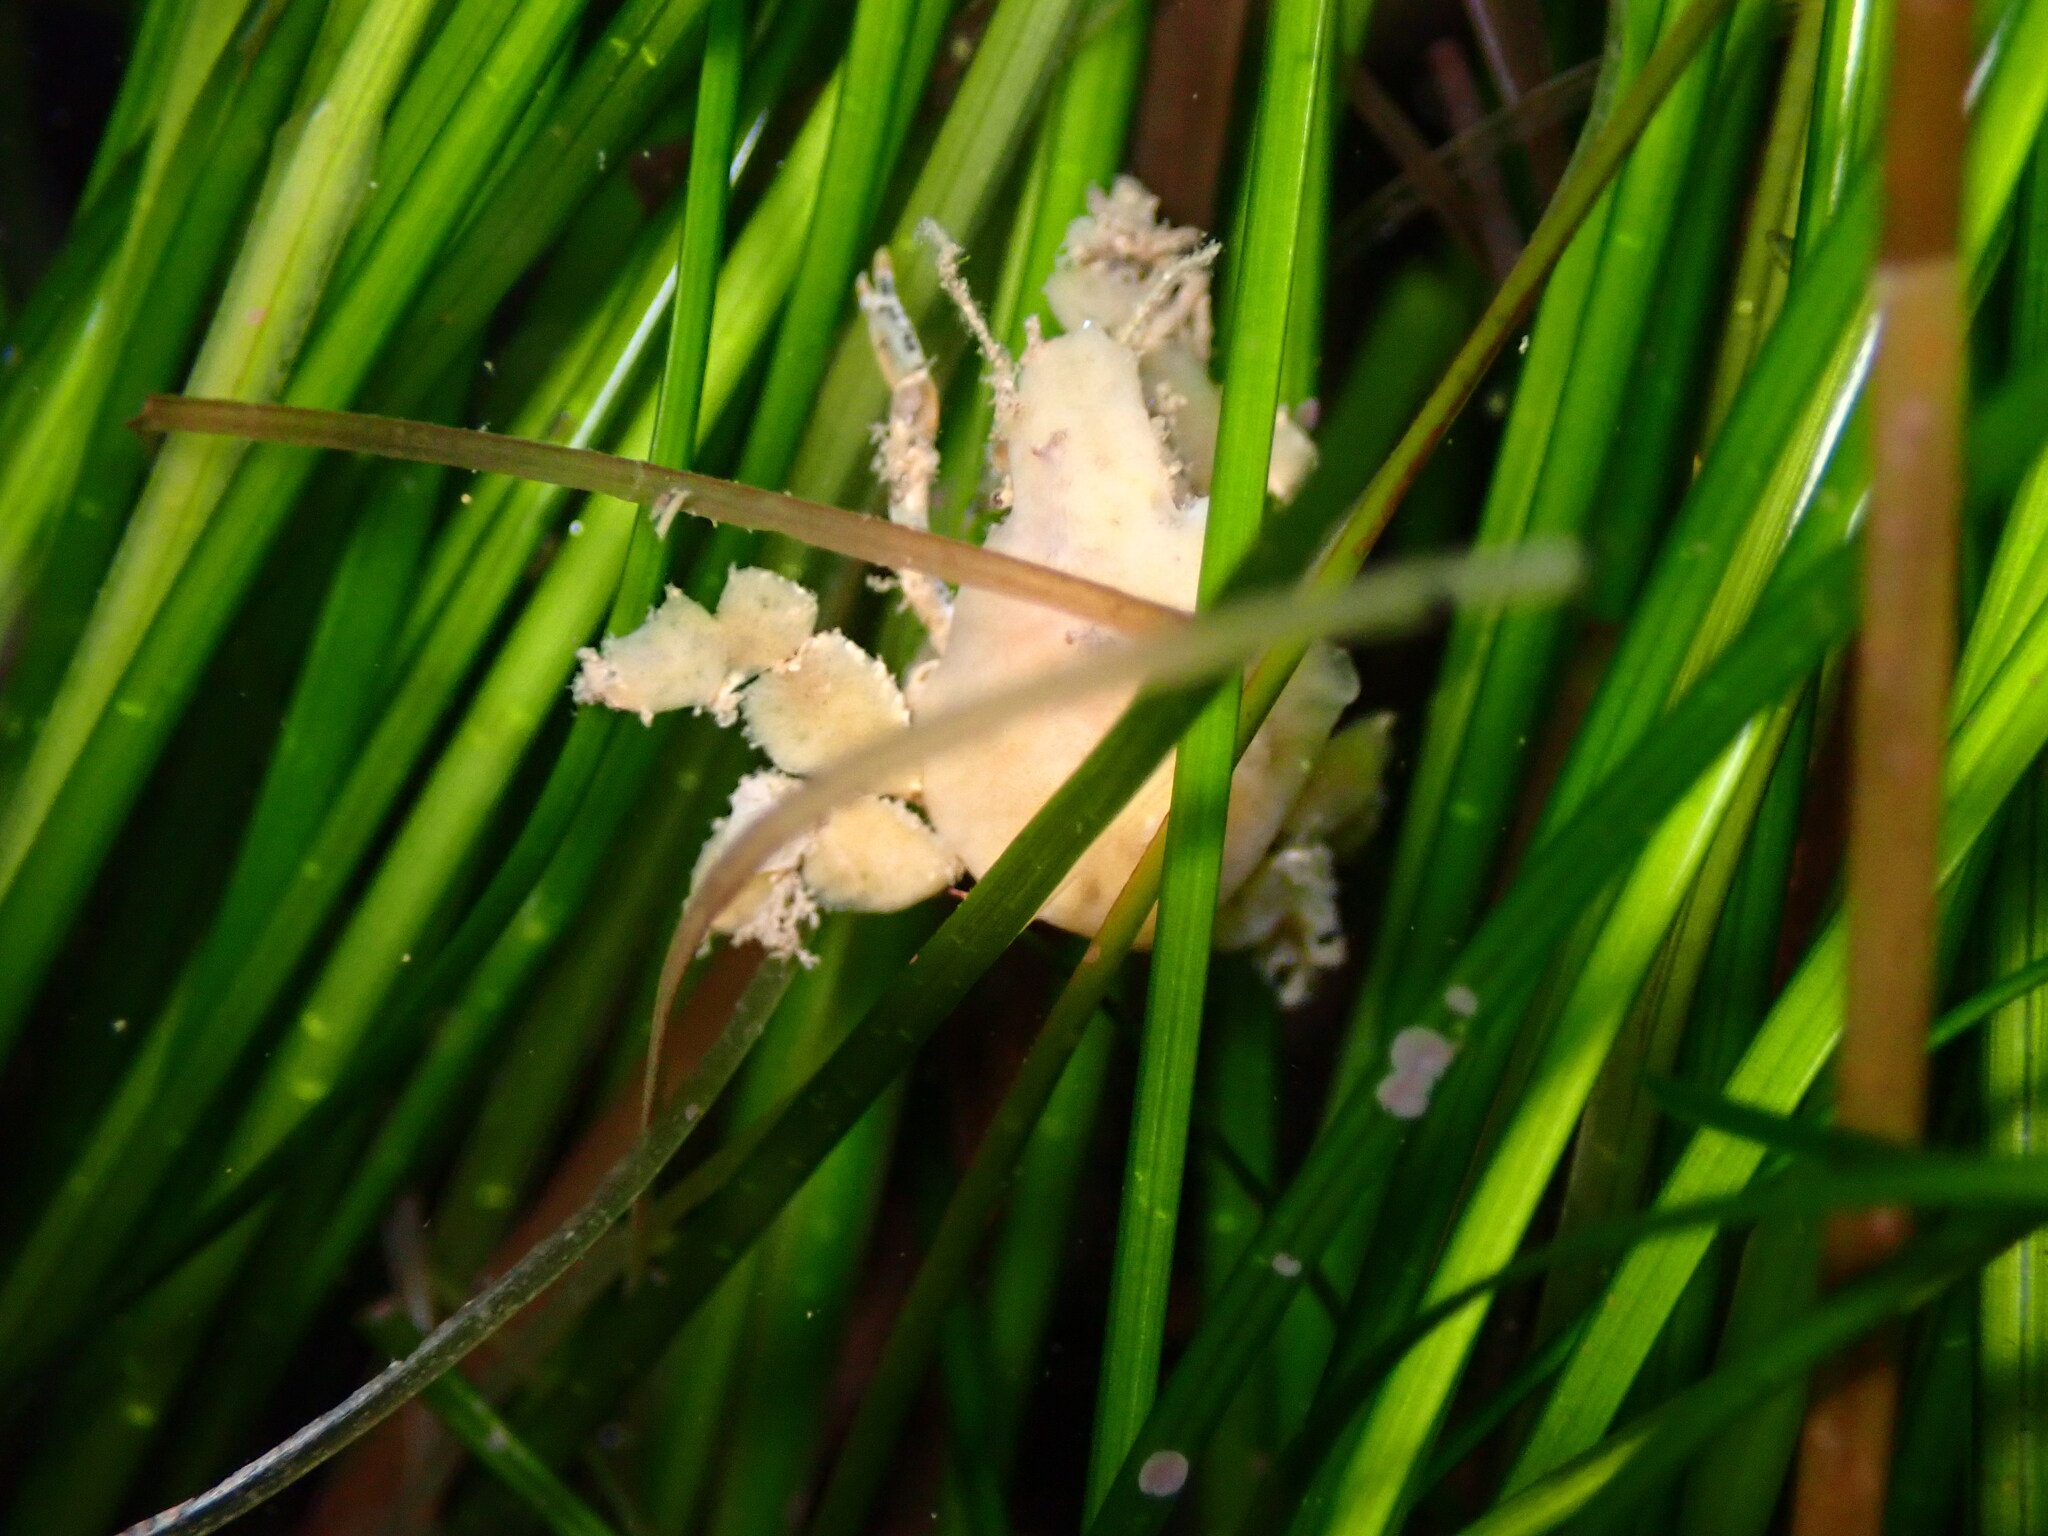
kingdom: Animalia
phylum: Arthropoda
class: Malacostraca
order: Decapoda
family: Epialtidae
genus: Pelia
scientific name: Pelia tumida
